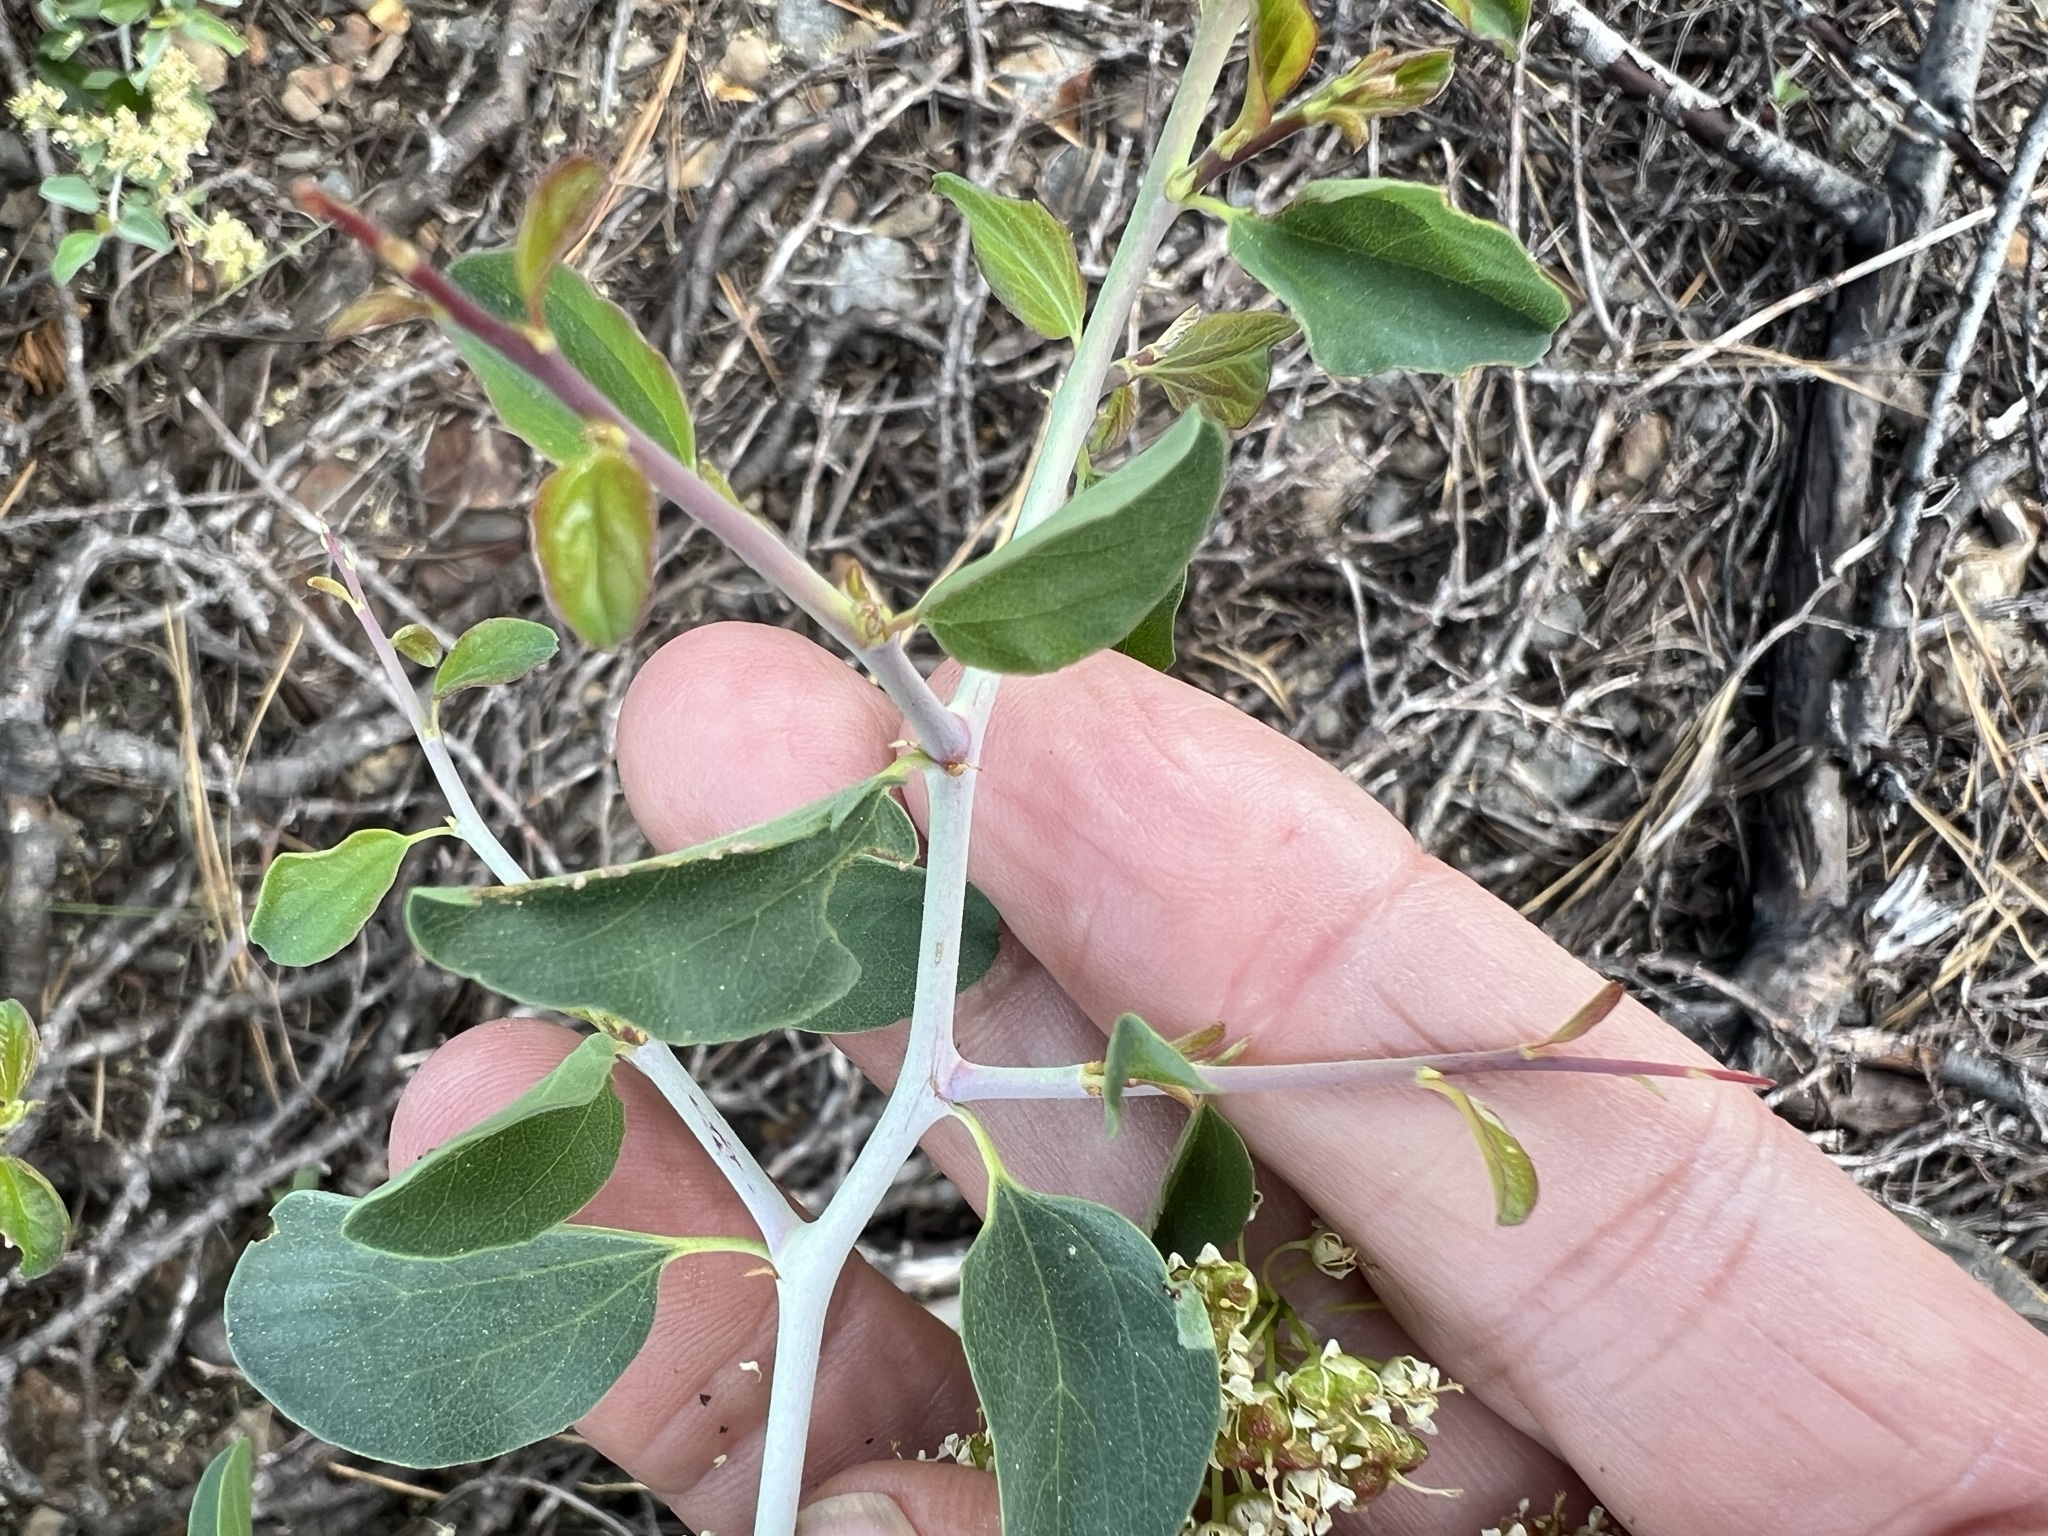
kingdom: Plantae
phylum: Tracheophyta
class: Magnoliopsida
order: Rosales
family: Rhamnaceae
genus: Ceanothus
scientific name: Ceanothus cordulatus
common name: Mountain whitethorn
